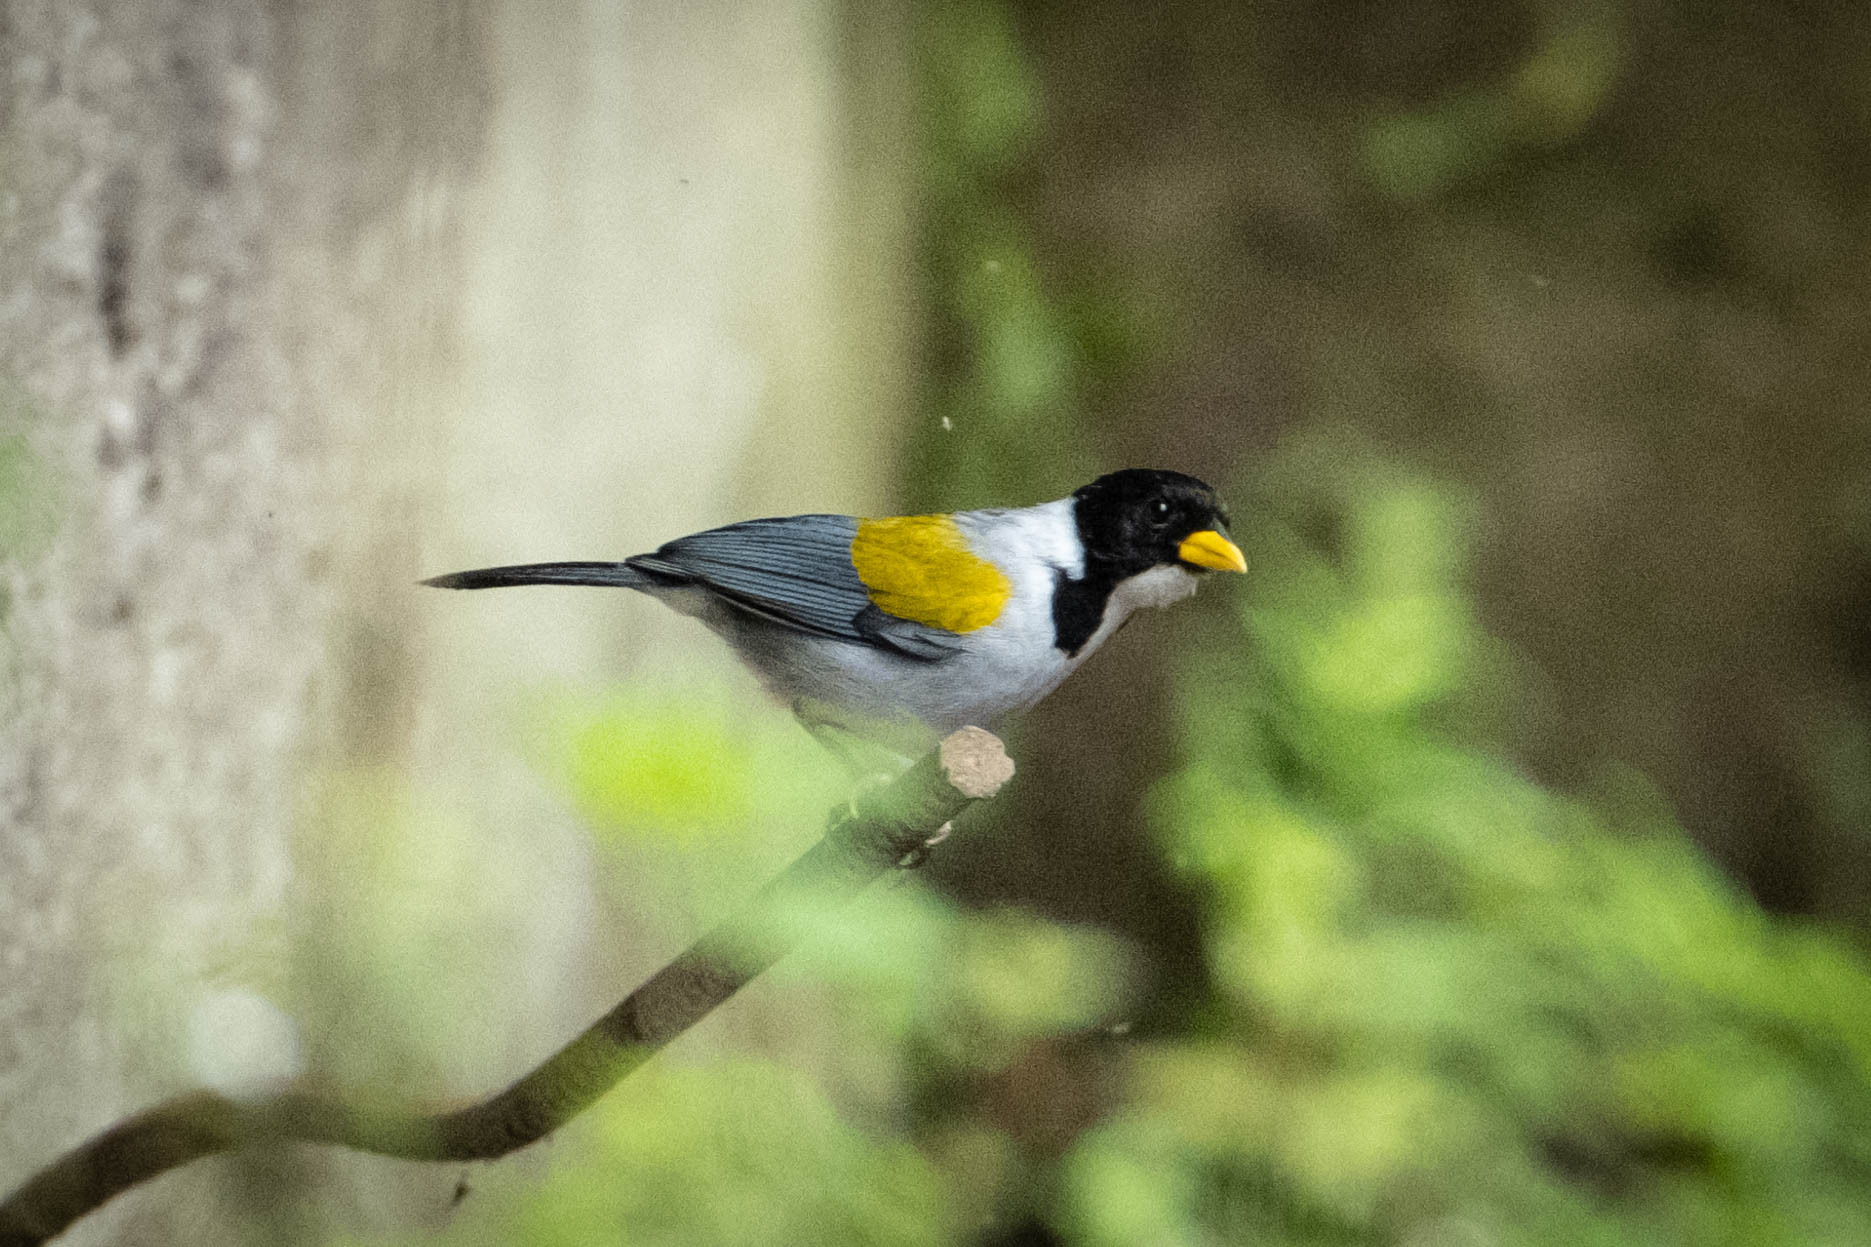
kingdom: Animalia
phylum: Chordata
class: Aves
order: Passeriformes
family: Passerellidae
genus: Arremon
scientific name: Arremon schlegeli
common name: Golden-winged sparrow
